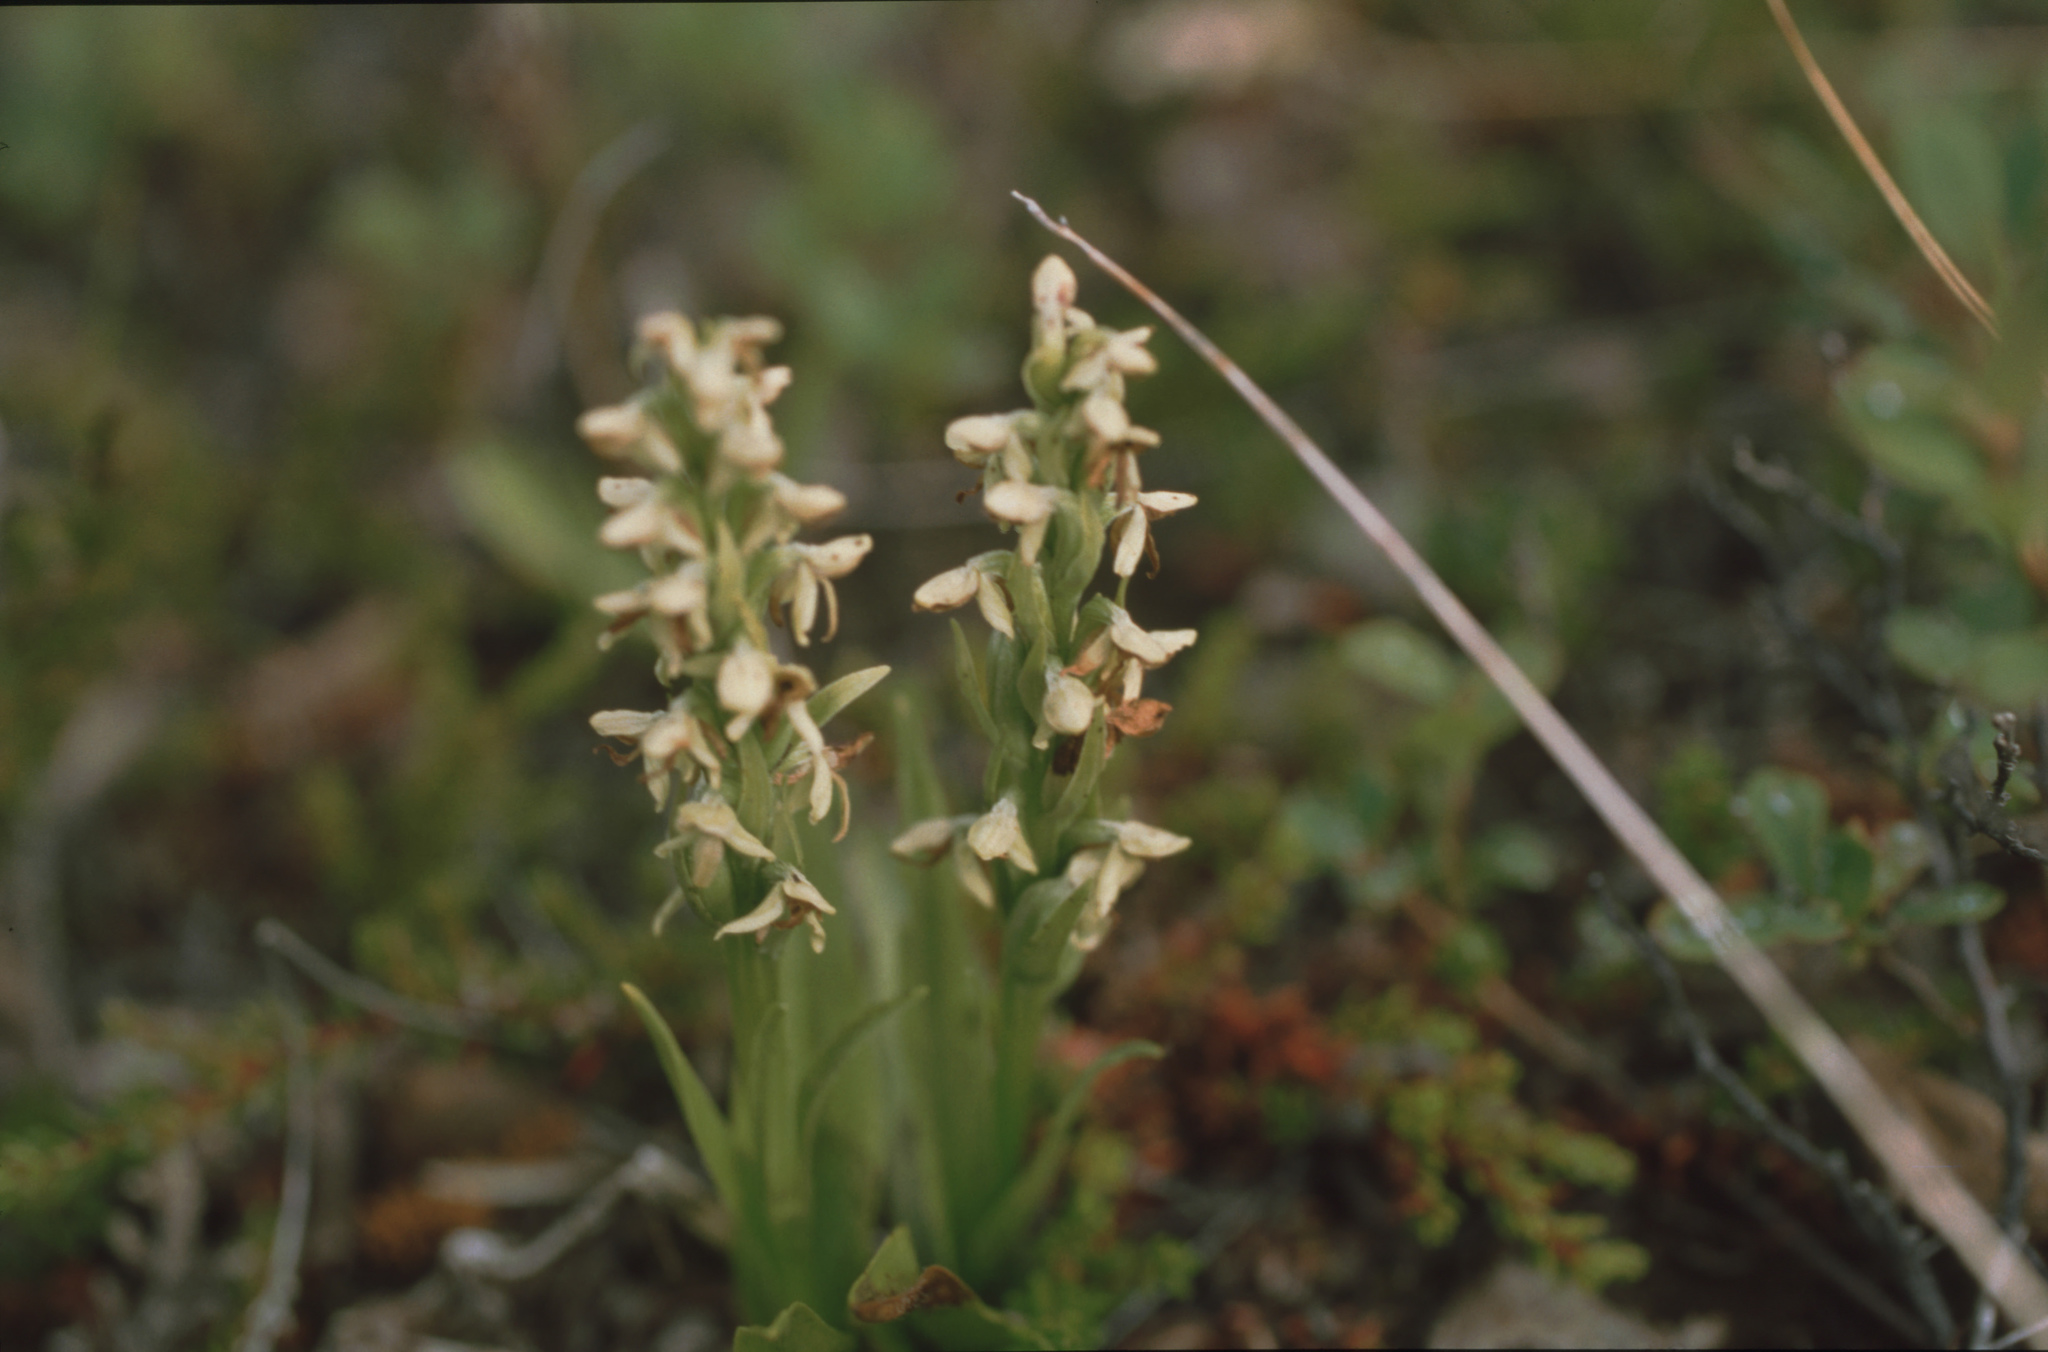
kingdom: Plantae
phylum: Tracheophyta
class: Liliopsida
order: Asparagales
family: Orchidaceae
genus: Platanthera
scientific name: Platanthera hyperborea
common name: Northern green orchid
